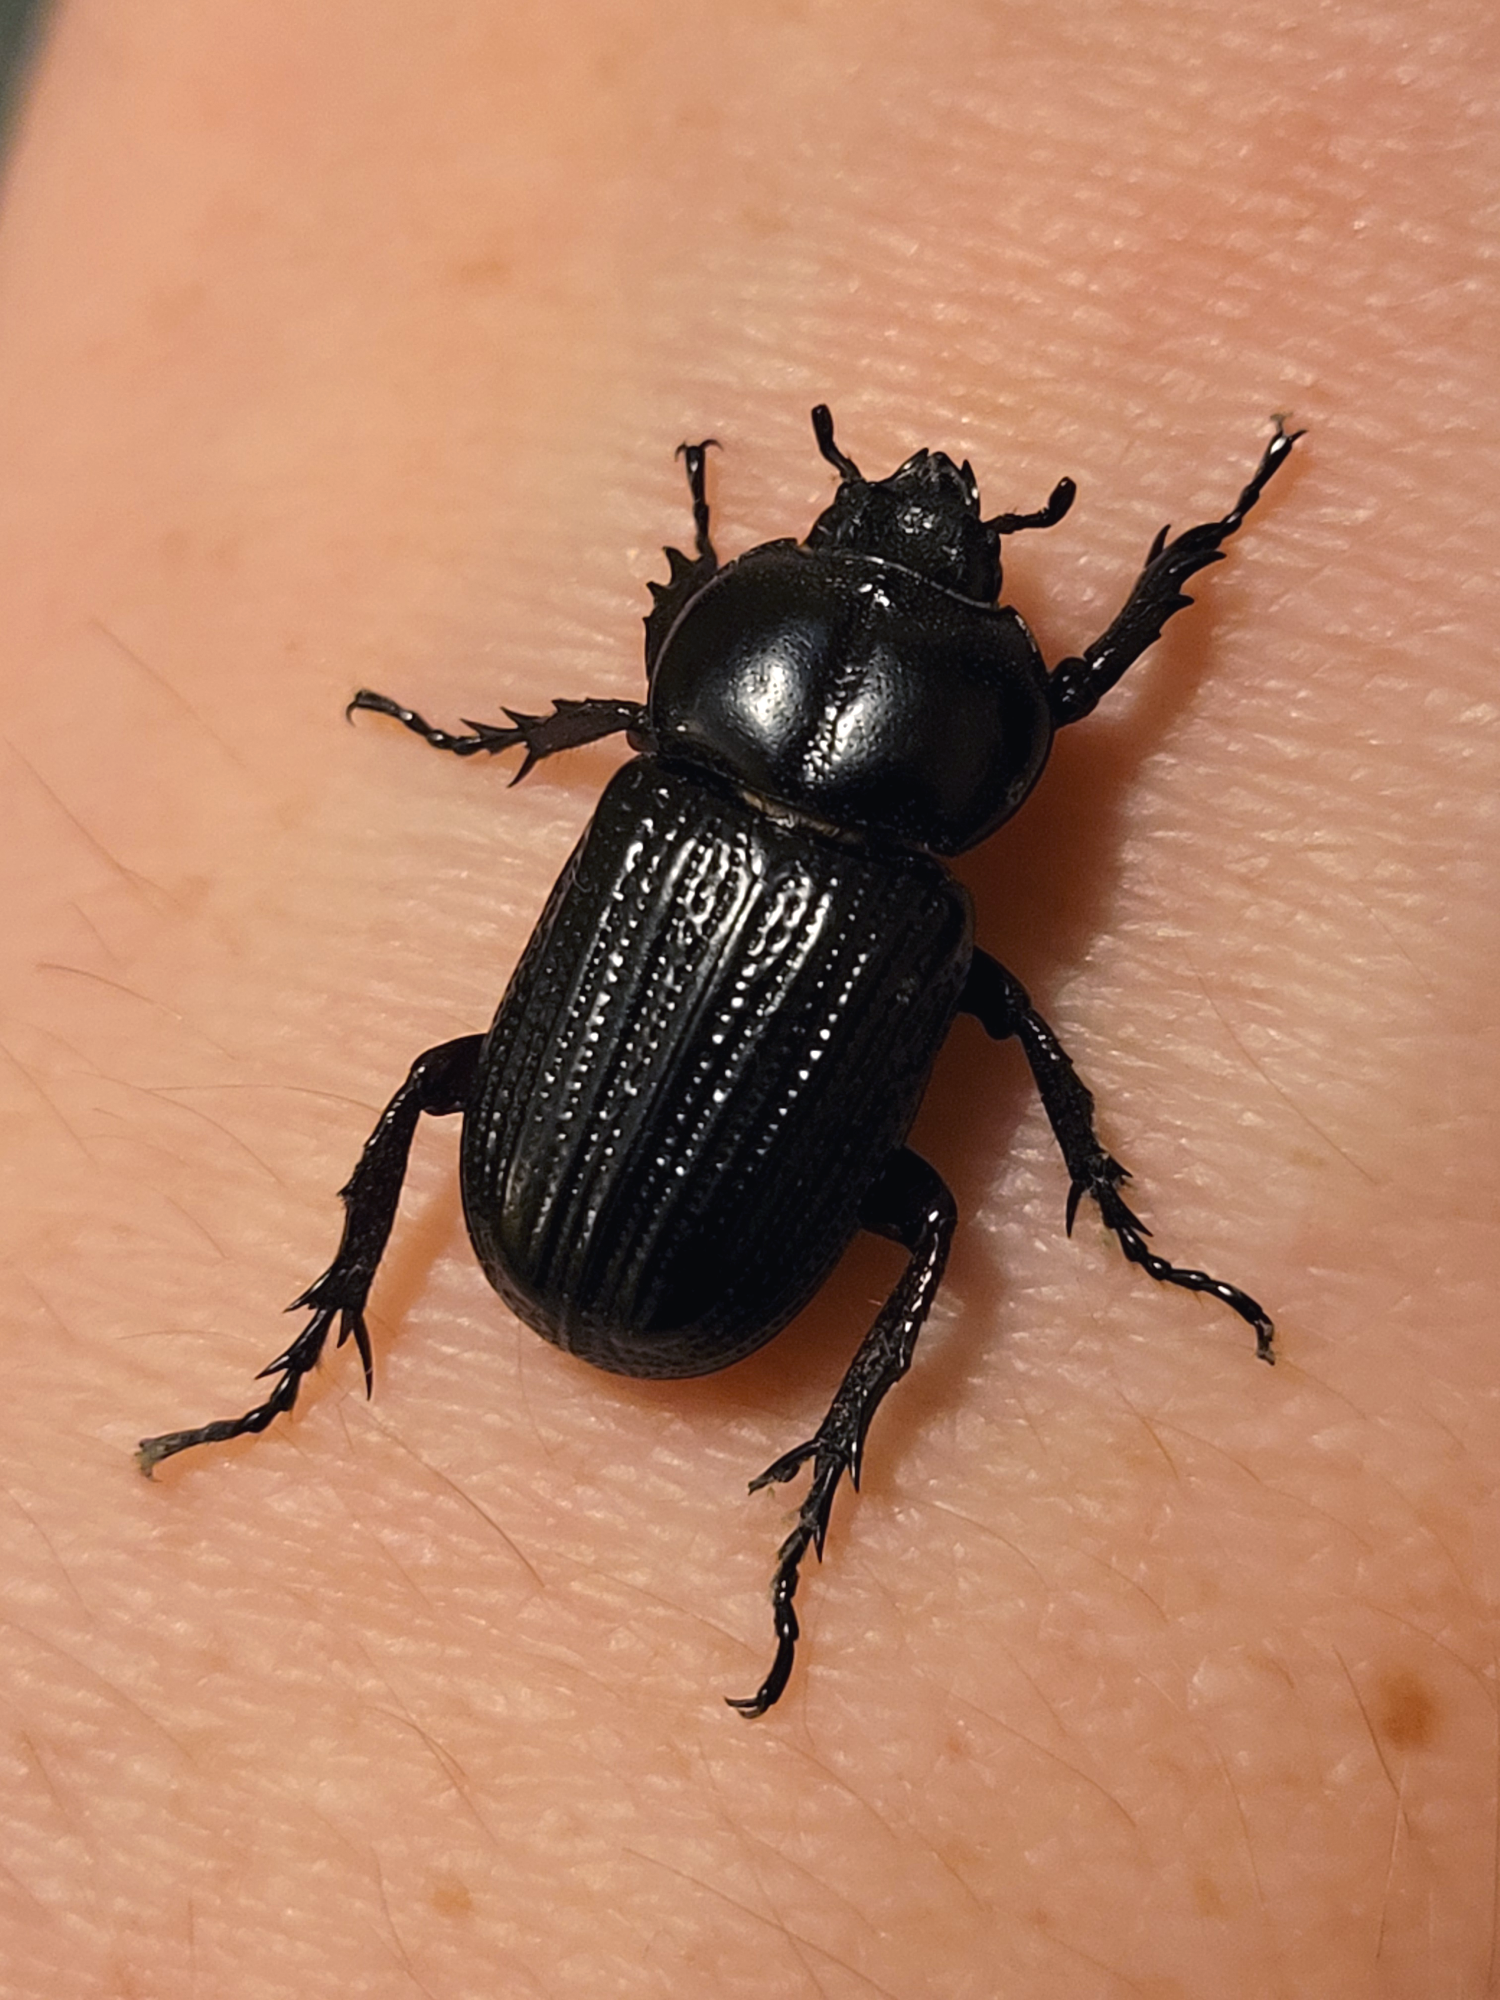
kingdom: Animalia
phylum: Arthropoda
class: Insecta
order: Coleoptera
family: Scarabaeidae
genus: Phileurus
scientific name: Phileurus valgus
